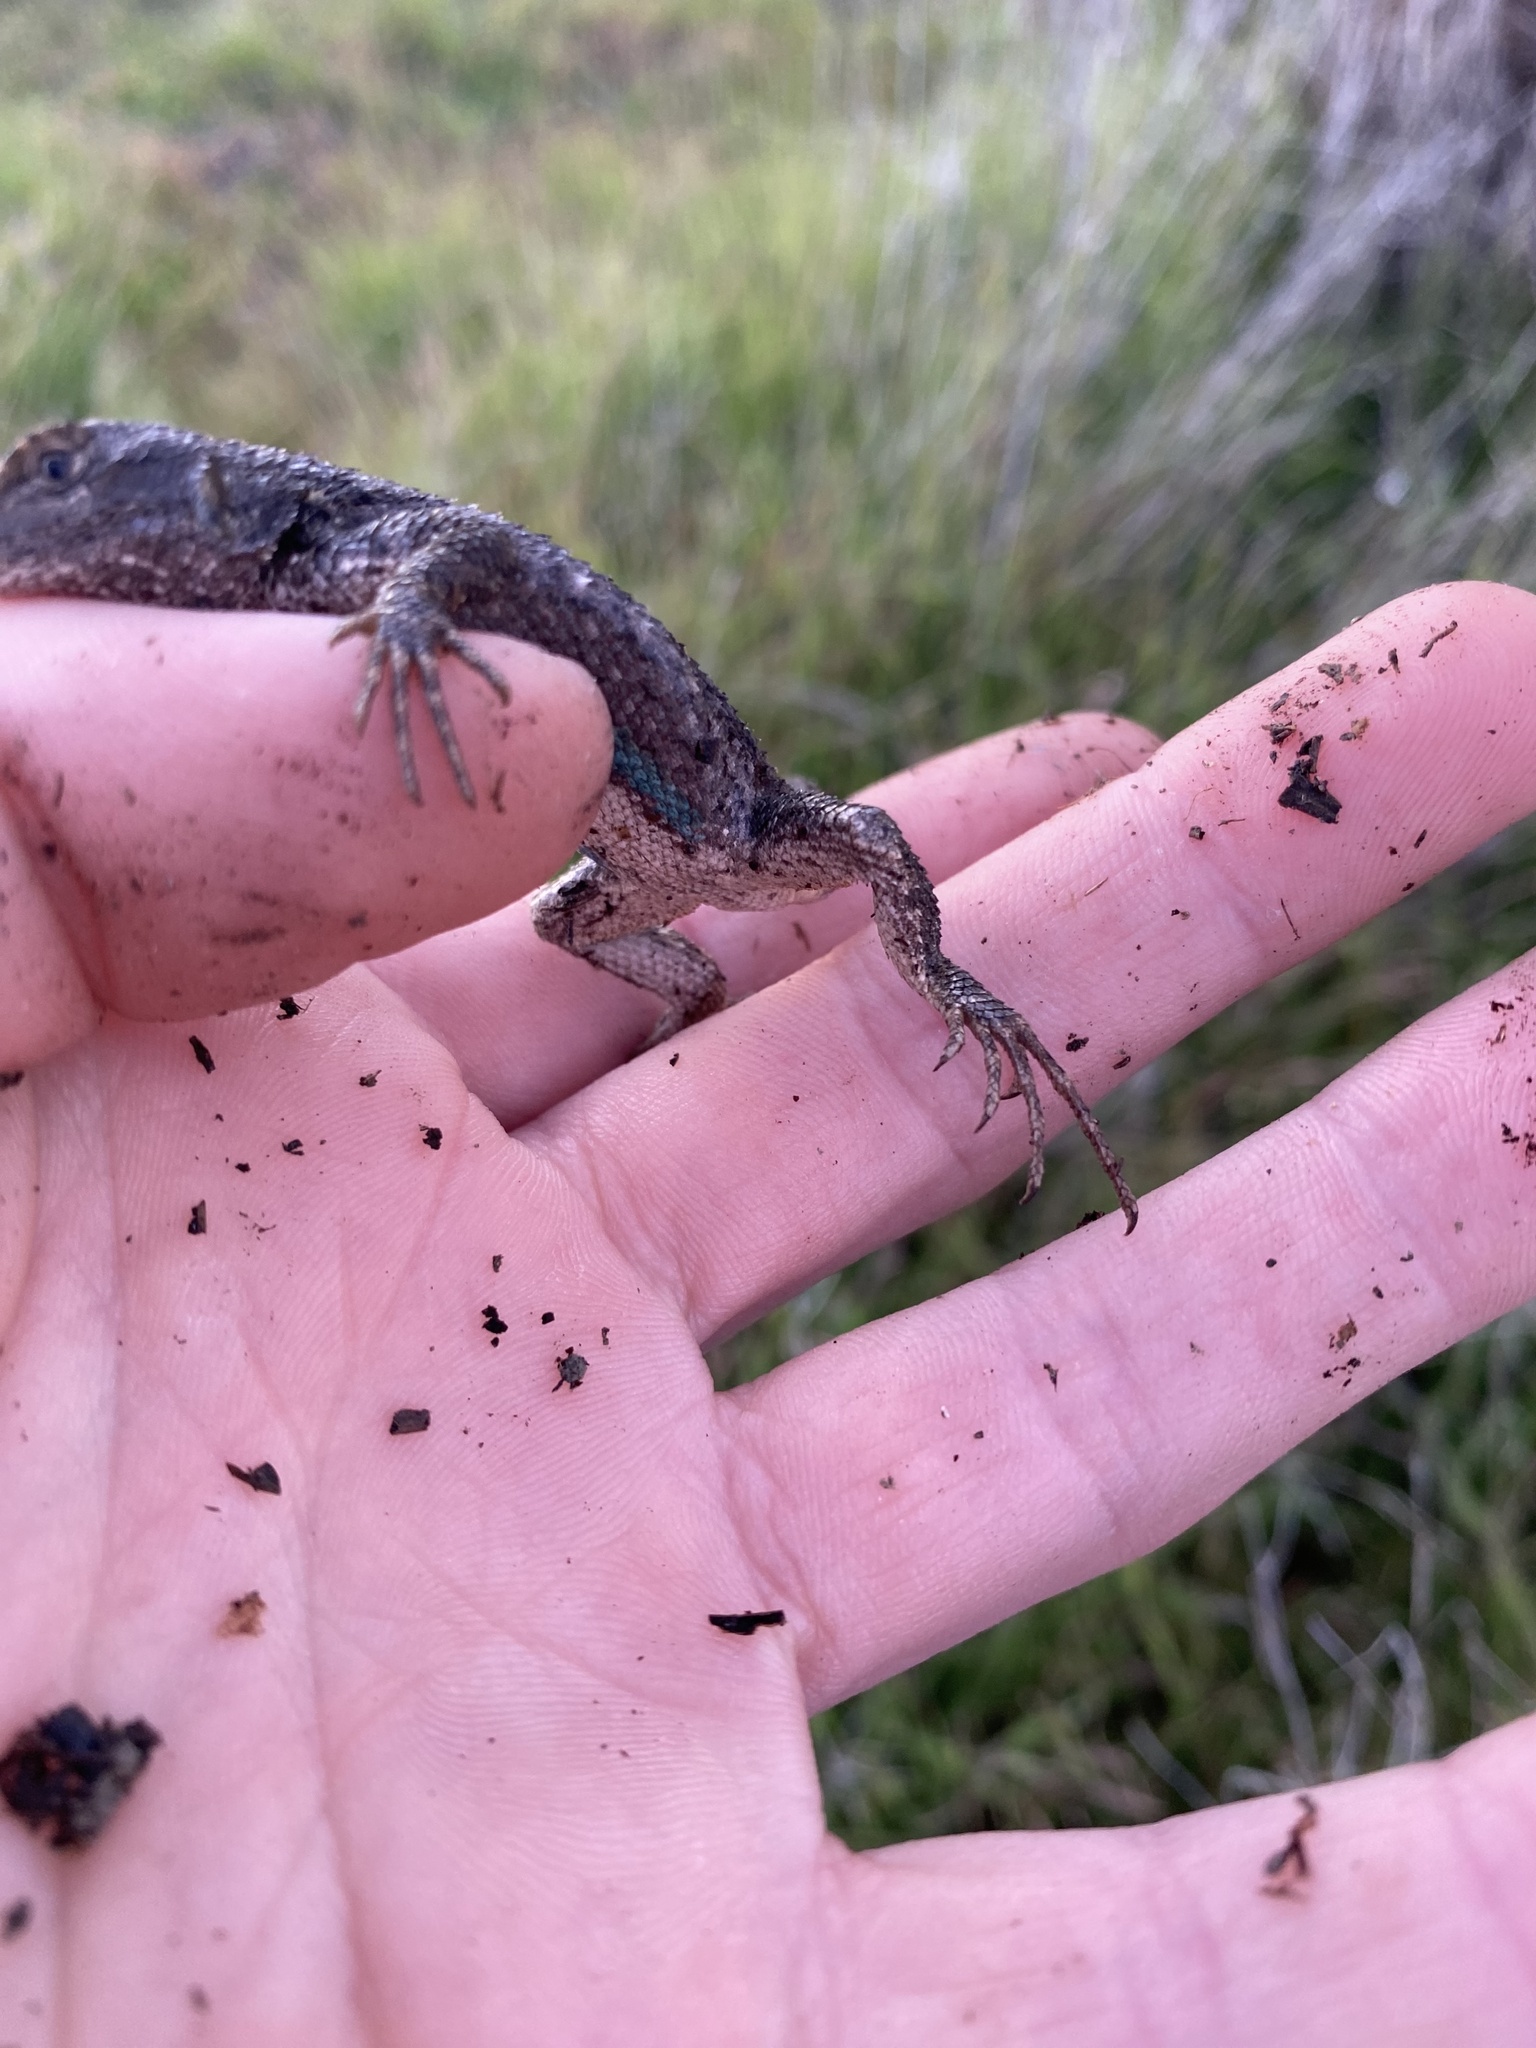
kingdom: Animalia
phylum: Chordata
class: Squamata
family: Phrynosomatidae
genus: Sceloporus
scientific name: Sceloporus occidentalis
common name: Western fence lizard
